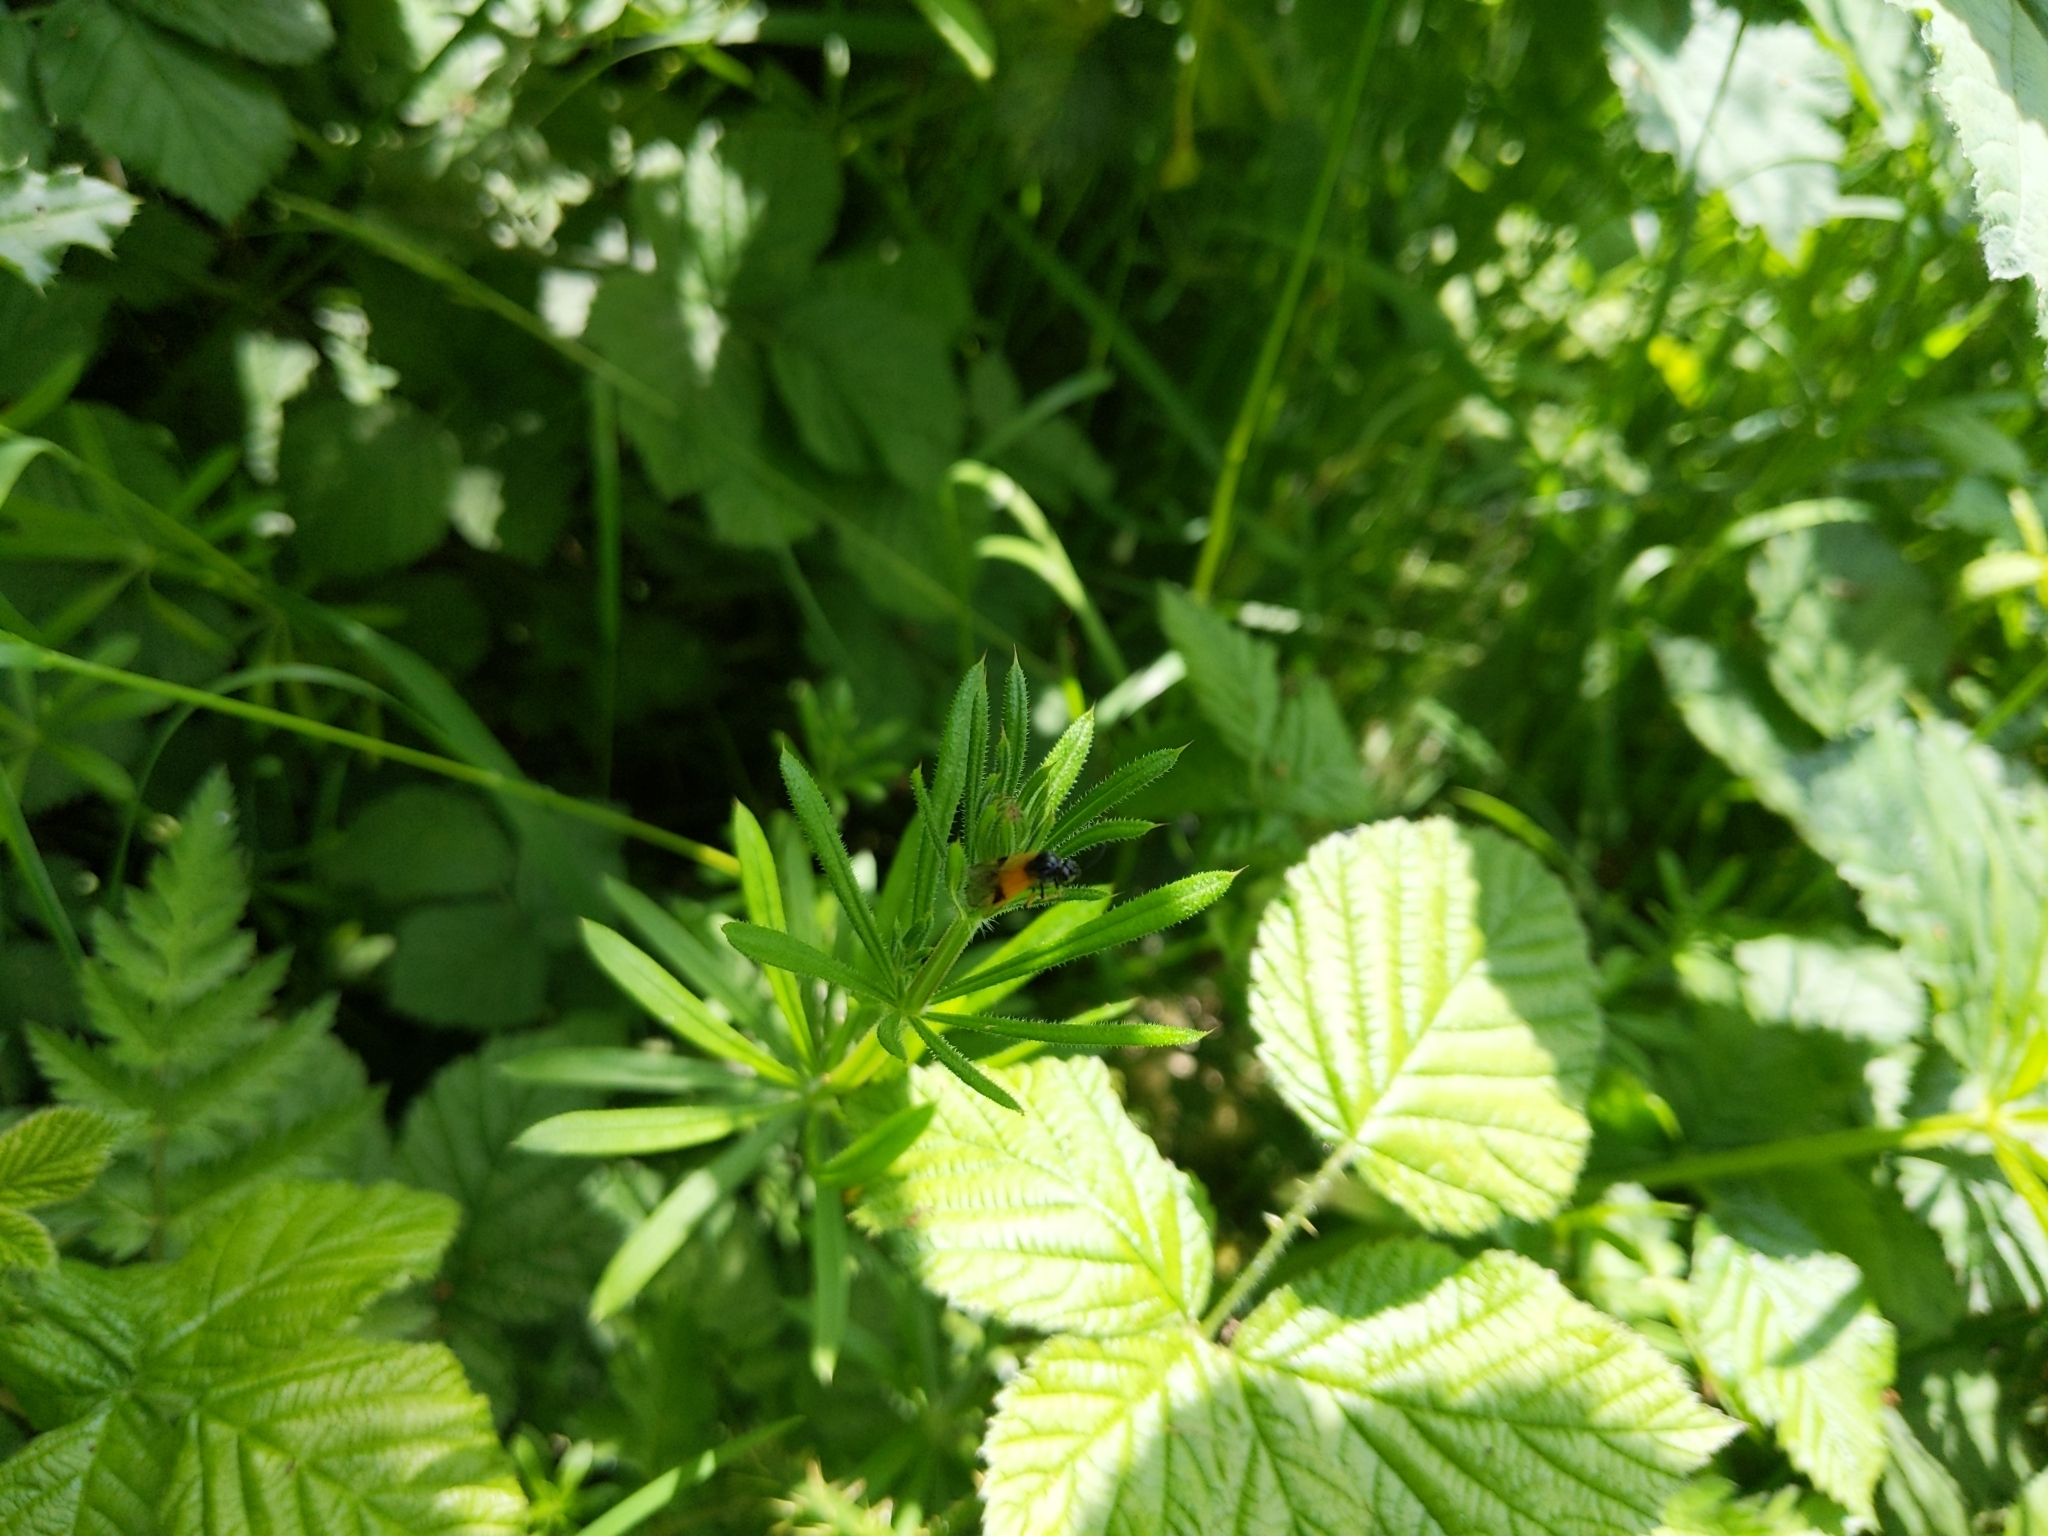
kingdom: Animalia
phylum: Arthropoda
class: Insecta
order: Hymenoptera
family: Argidae
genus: Arge
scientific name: Arge cyanocrocea
